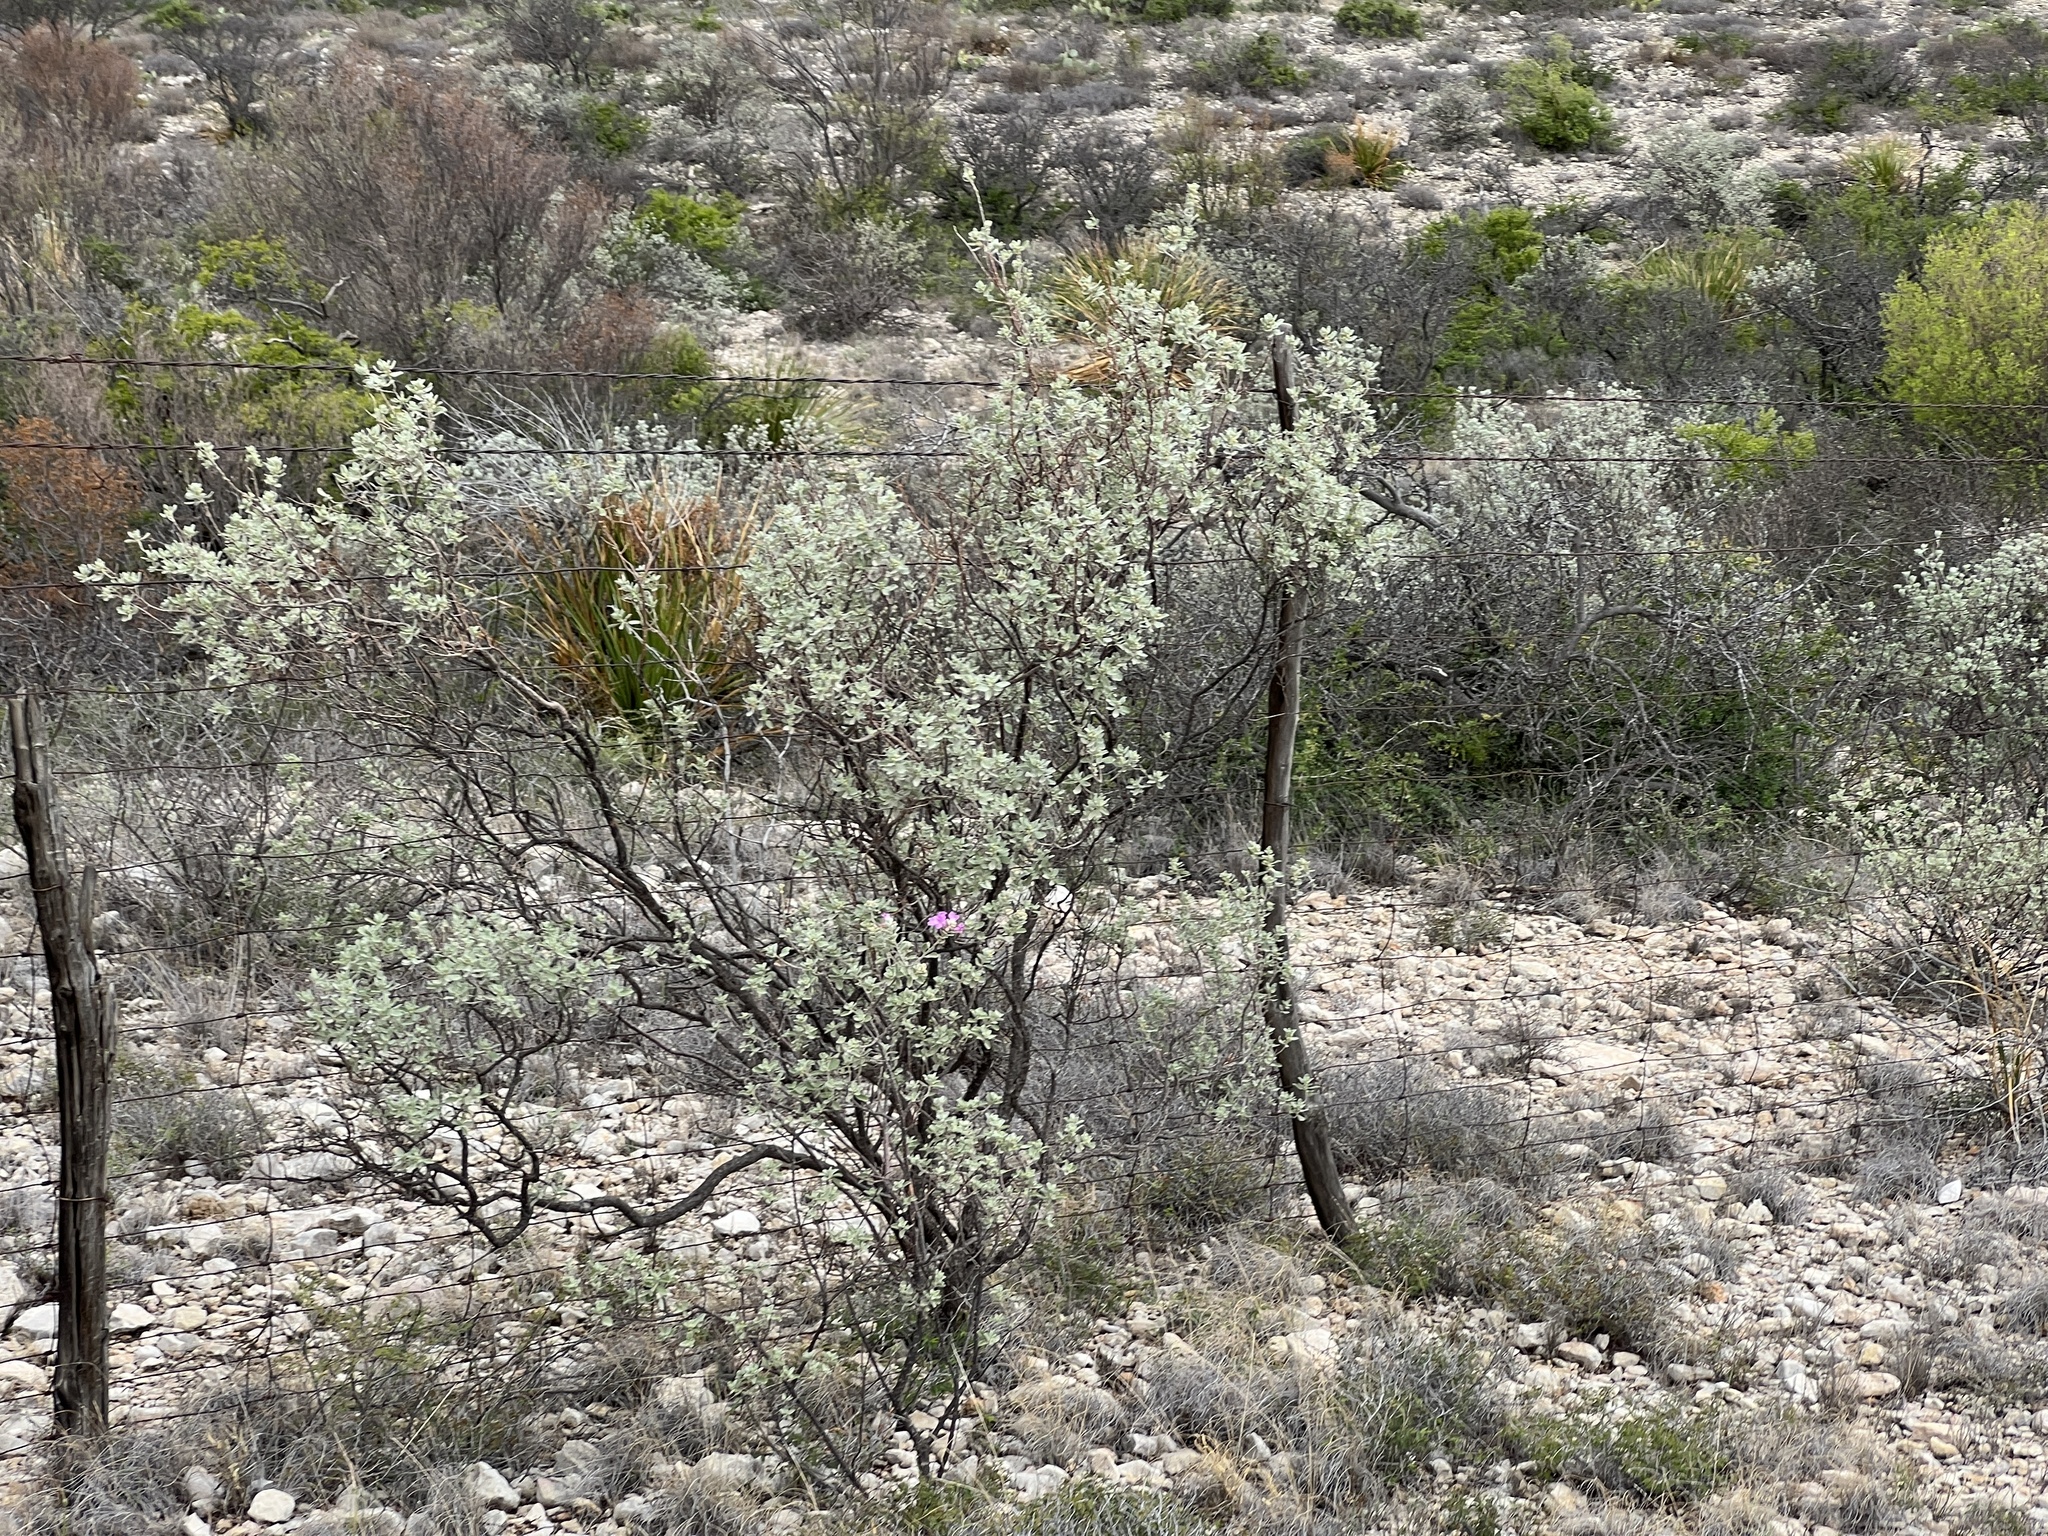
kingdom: Plantae
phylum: Tracheophyta
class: Magnoliopsida
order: Lamiales
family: Scrophulariaceae
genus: Leucophyllum
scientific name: Leucophyllum frutescens
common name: Texas silverleaf
